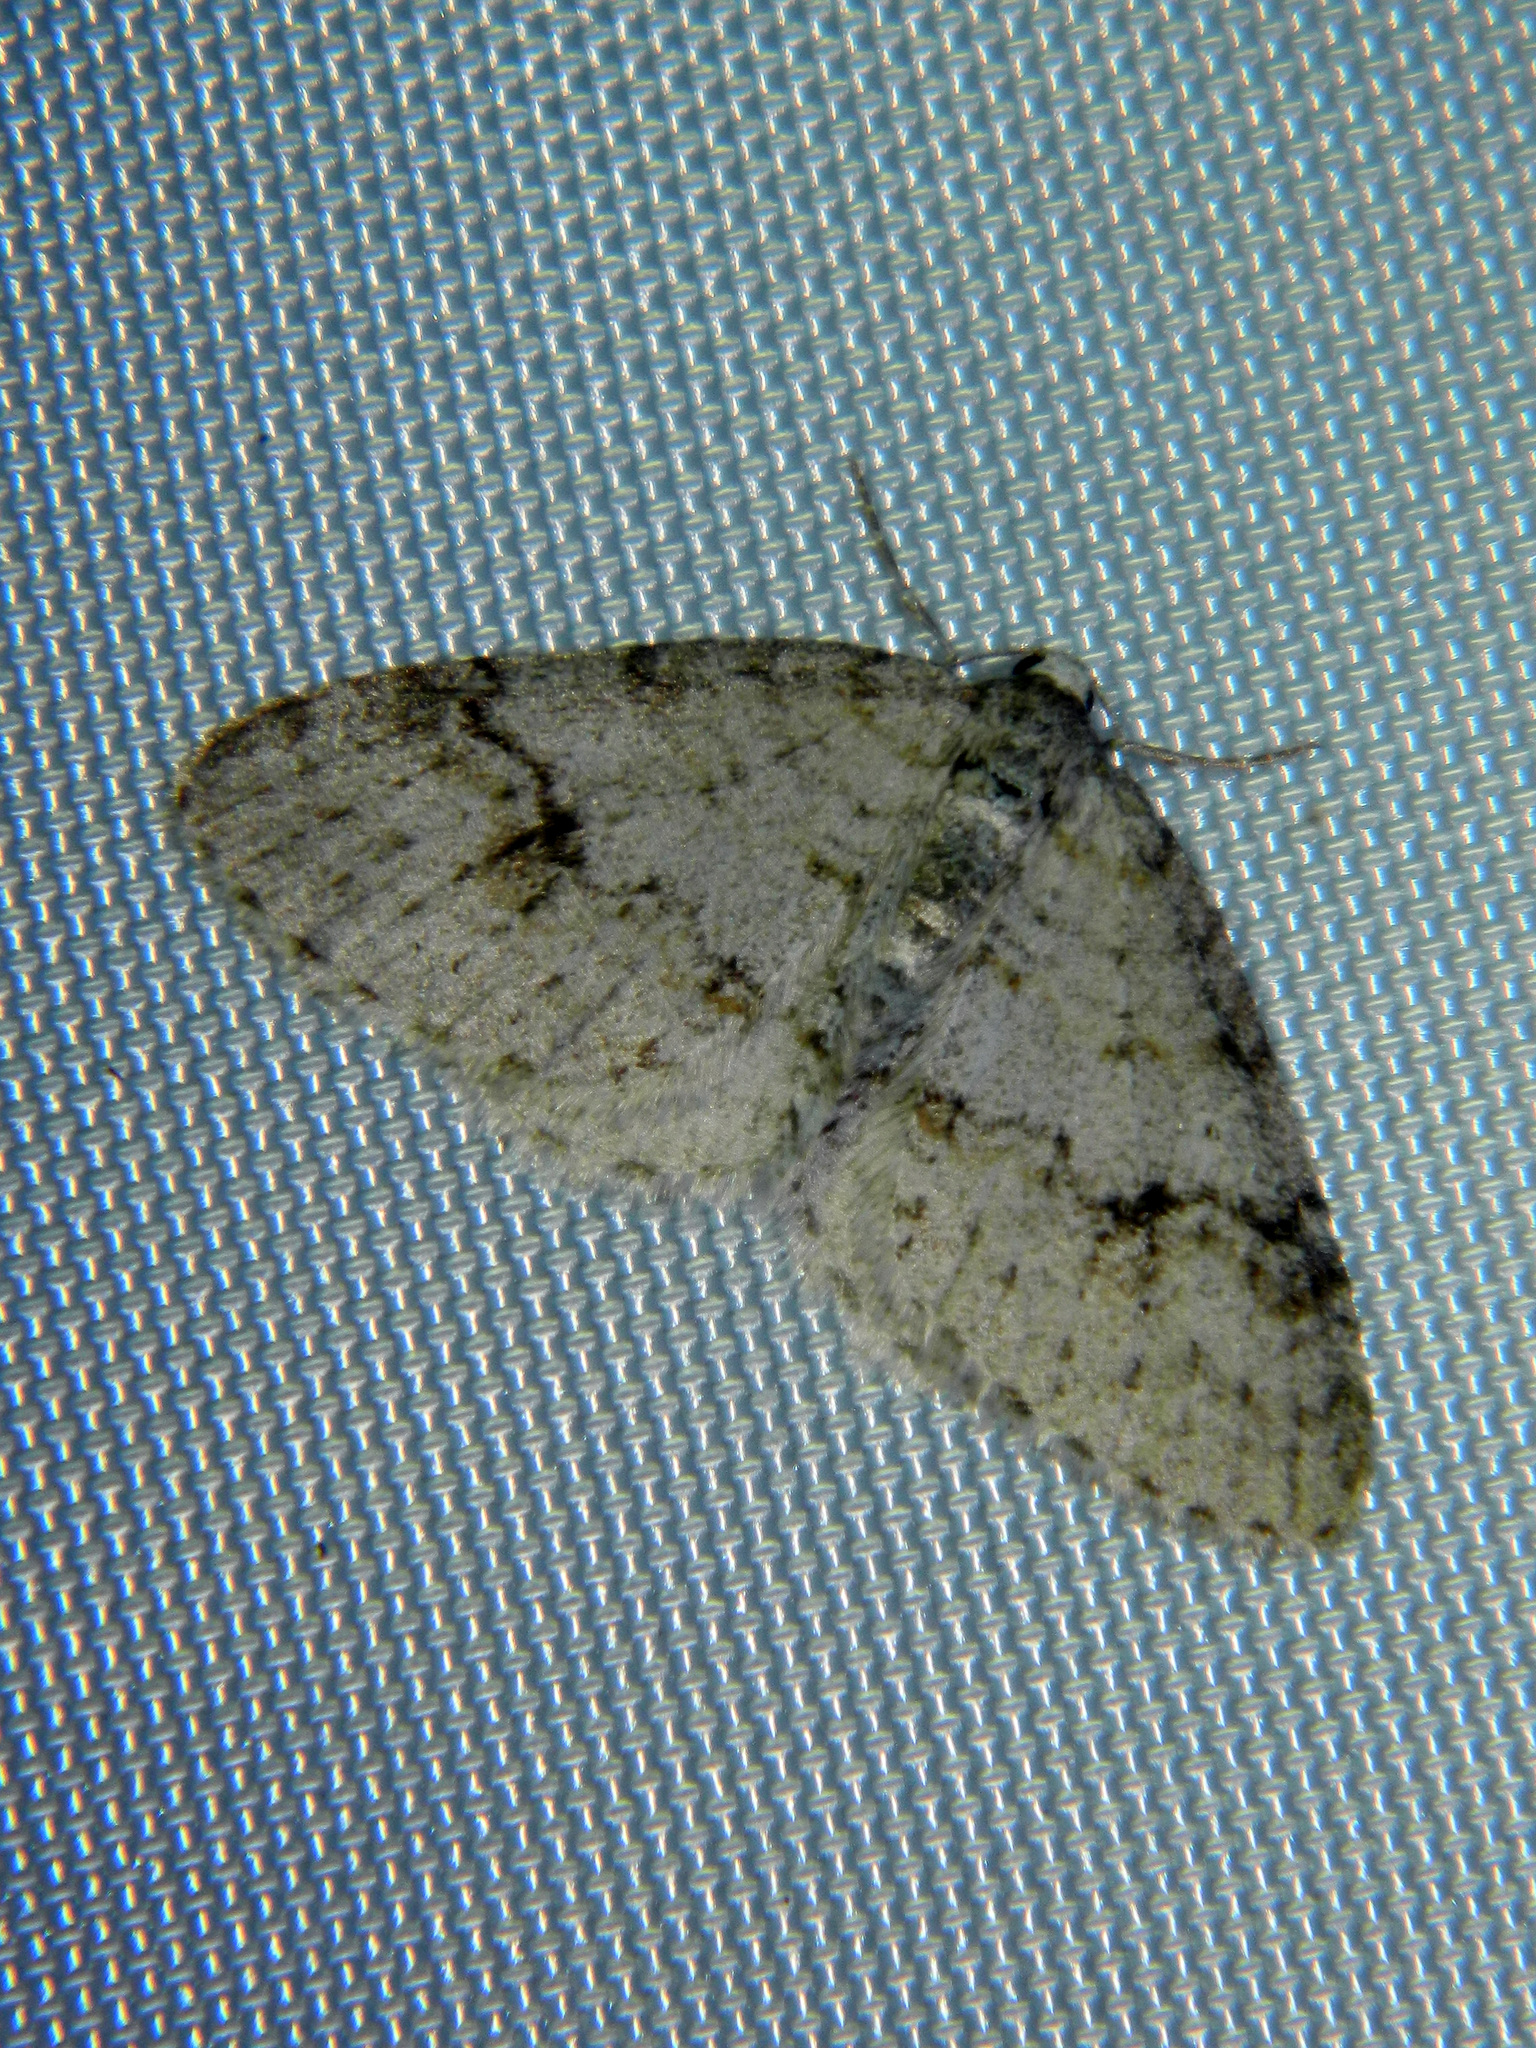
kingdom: Animalia
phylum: Arthropoda
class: Insecta
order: Lepidoptera
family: Geometridae
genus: Venusia
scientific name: Venusia comptaria
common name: Brown-shaded carpet
